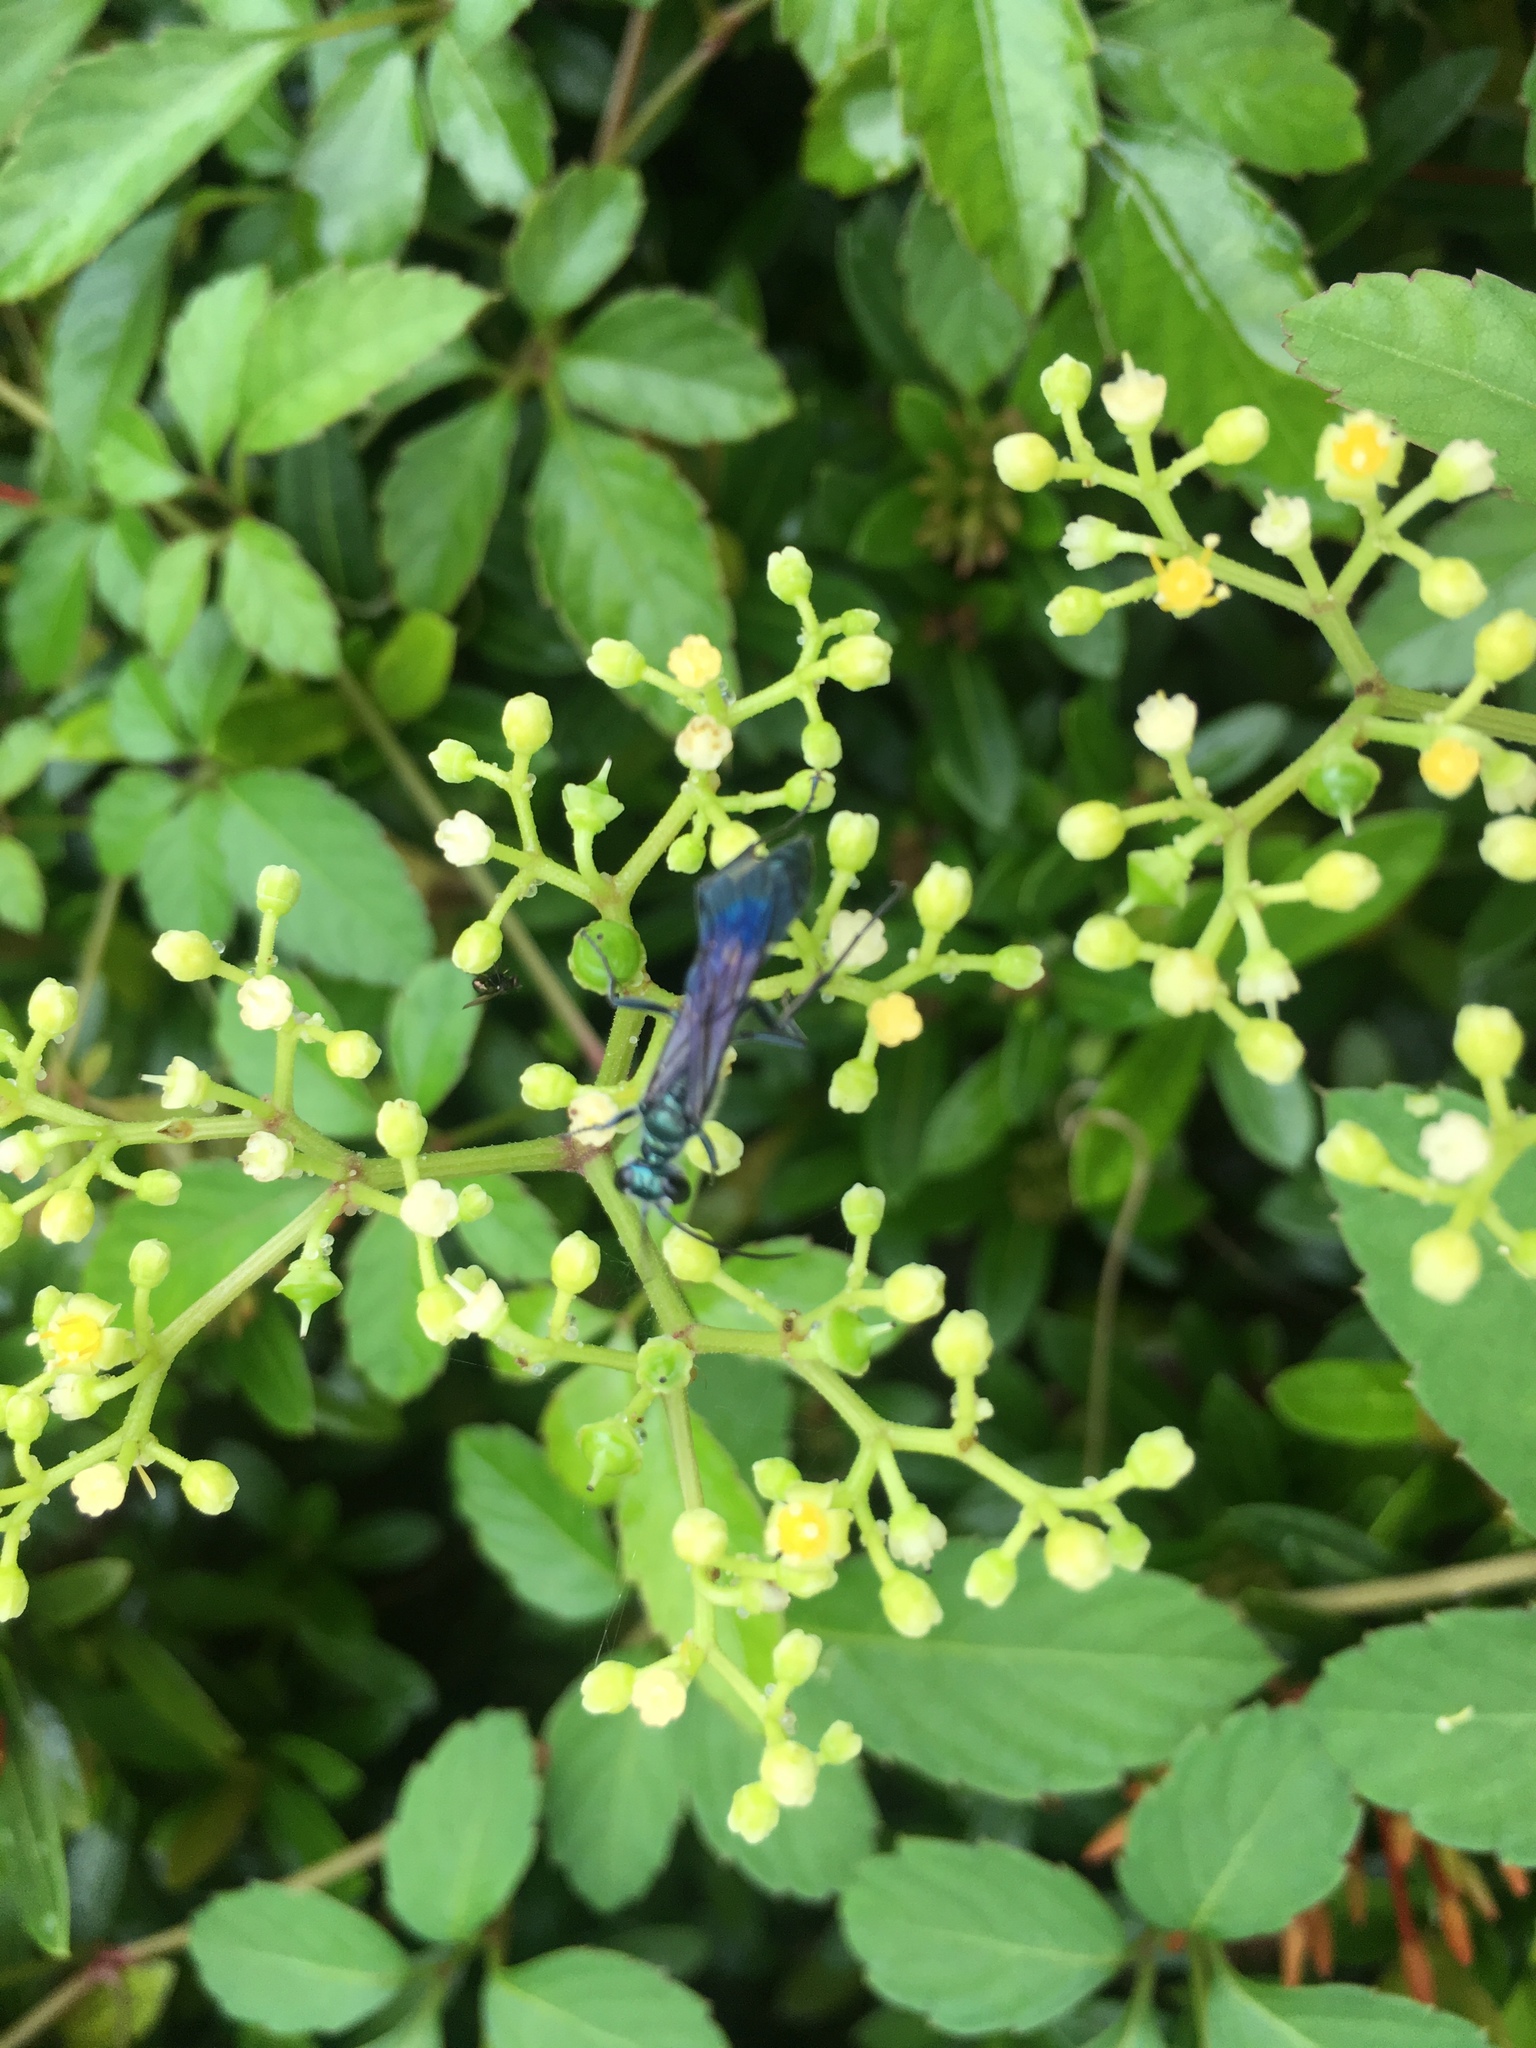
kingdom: Animalia
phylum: Arthropoda
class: Insecta
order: Hymenoptera
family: Sphecidae
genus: Chalybion
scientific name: Chalybion japonicum
